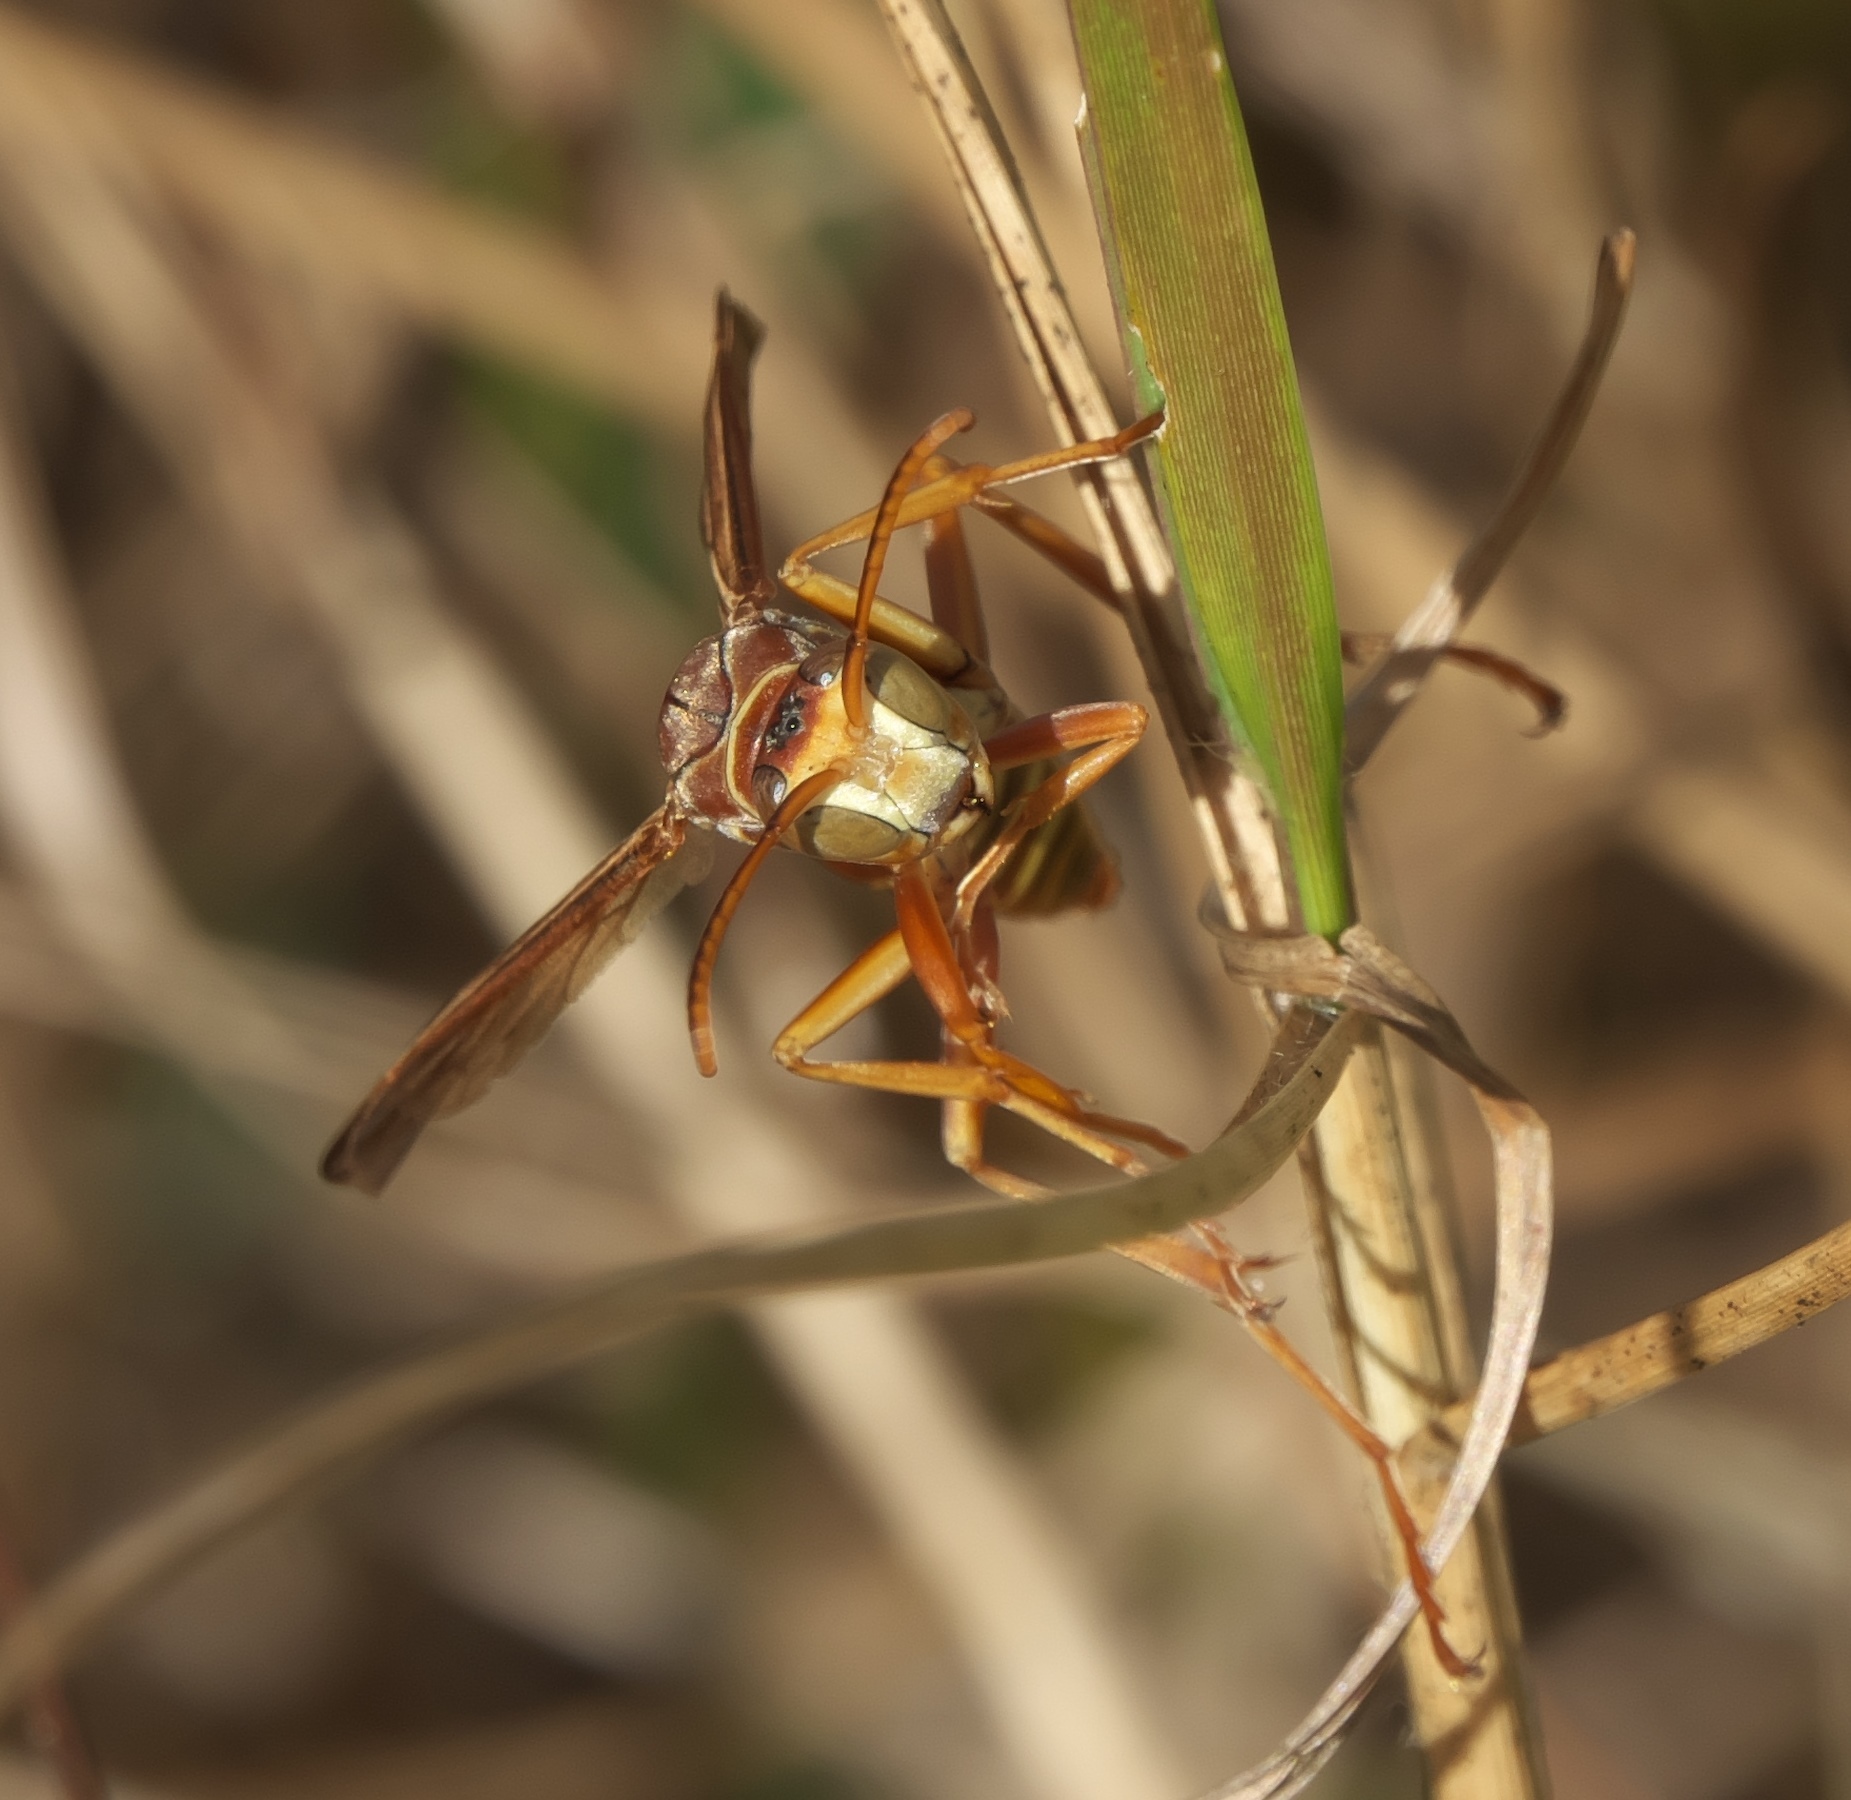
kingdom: Animalia
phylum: Arthropoda
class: Insecta
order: Hymenoptera
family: Eumenidae
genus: Polistes
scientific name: Polistes bellicosus
